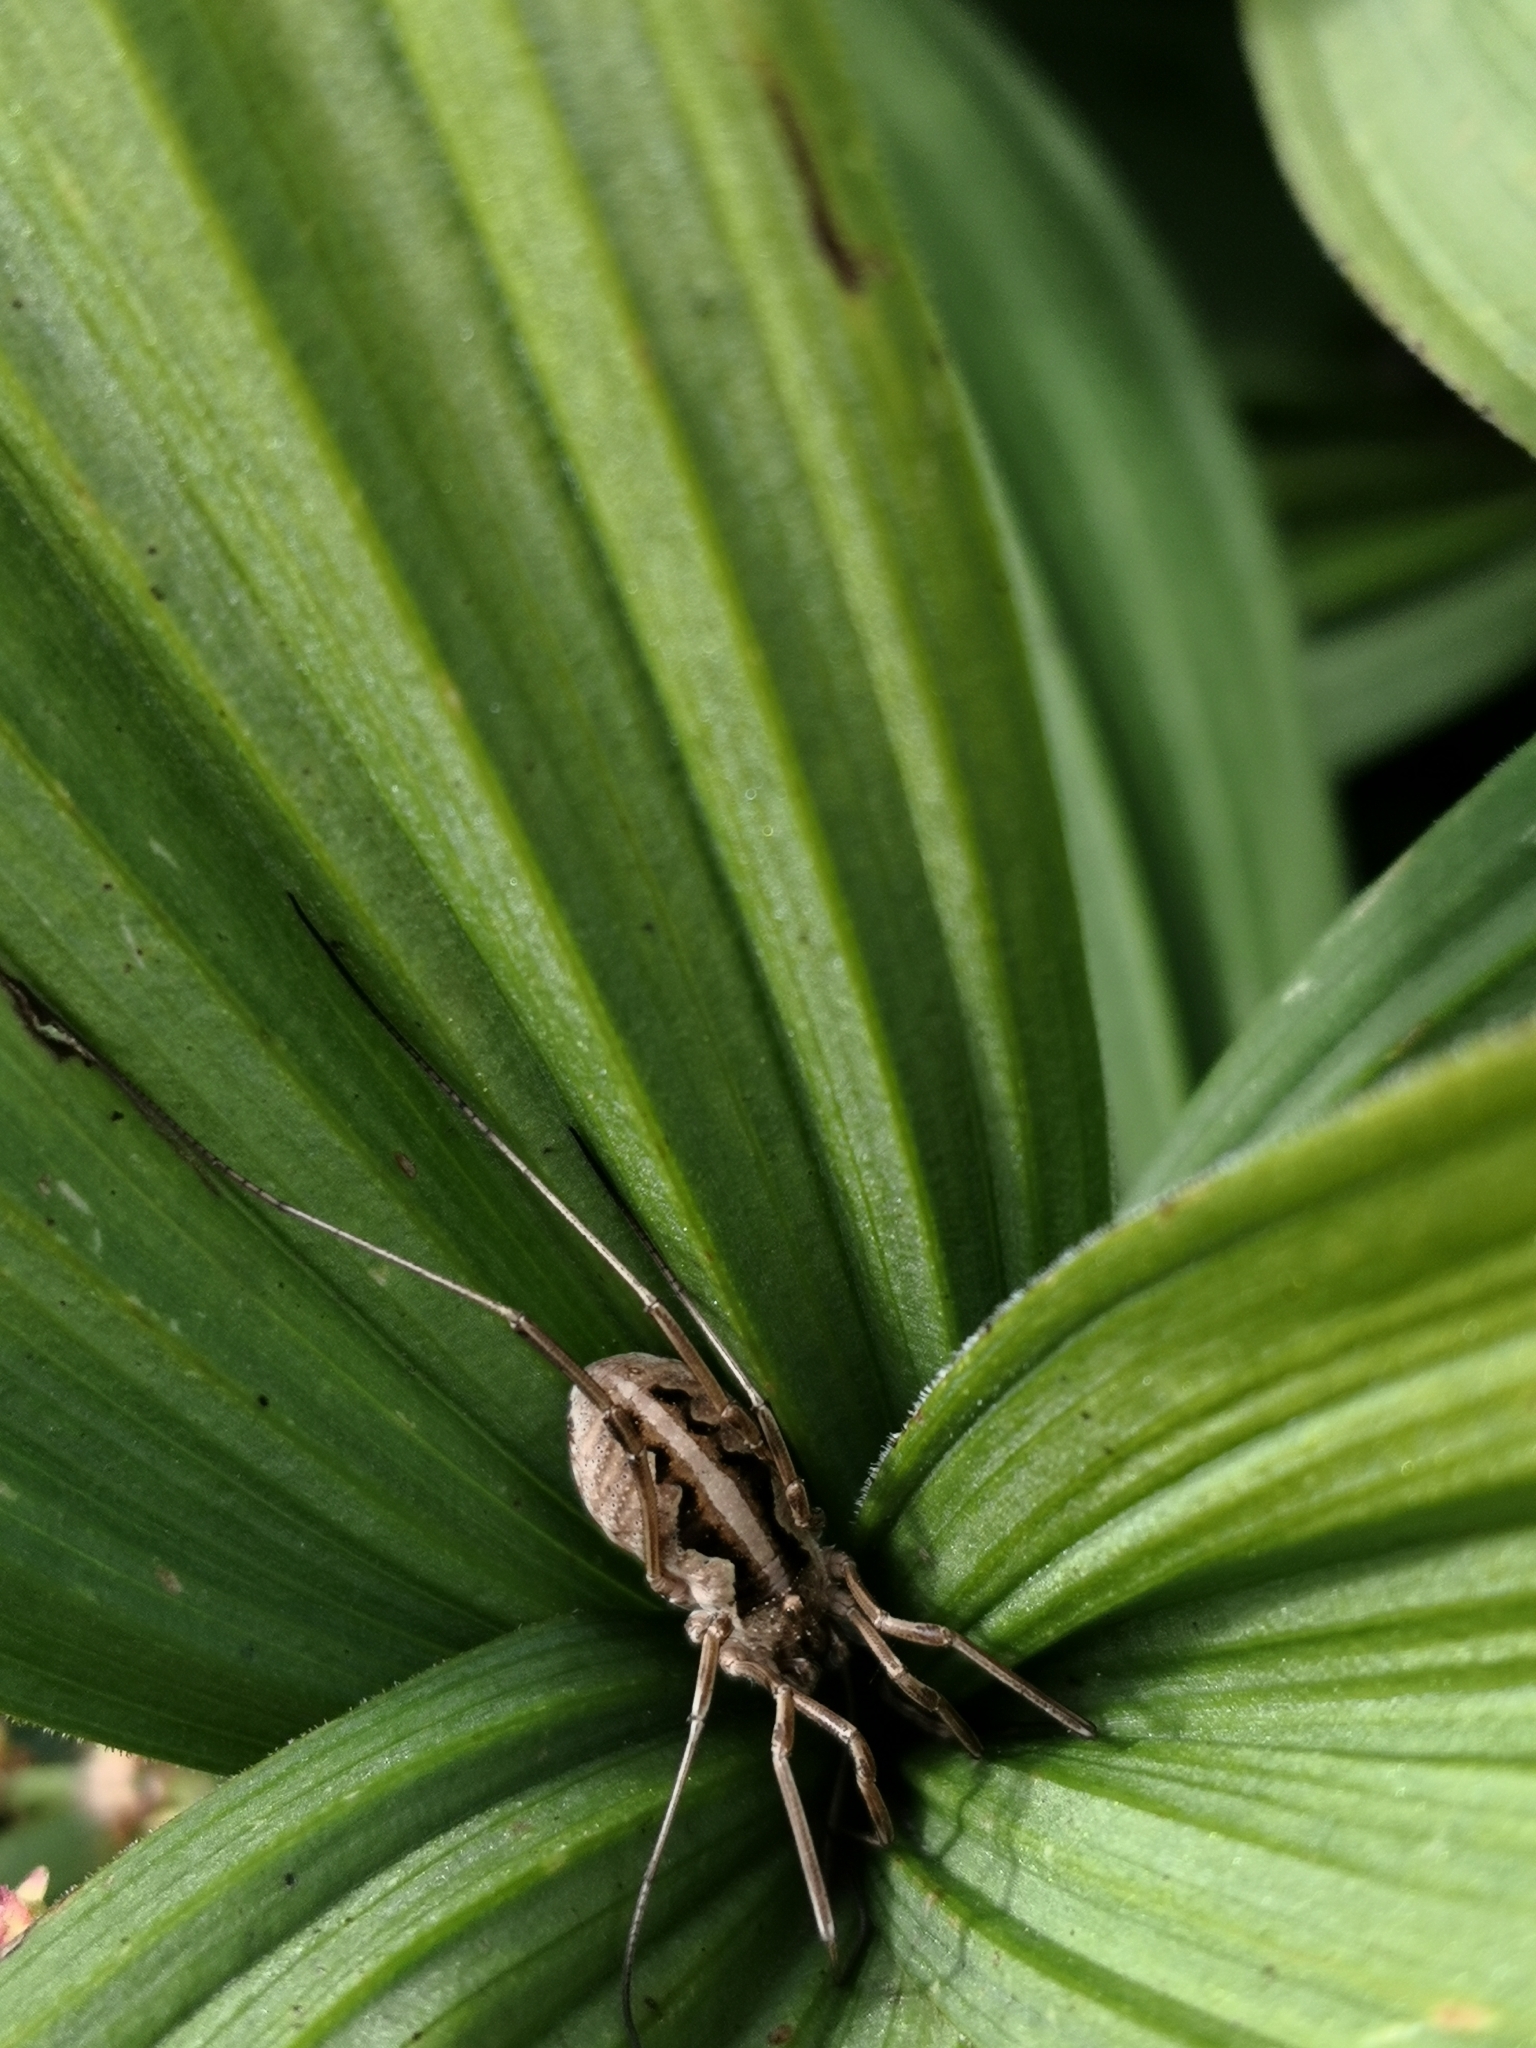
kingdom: Animalia
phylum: Arthropoda
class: Arachnida
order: Opiliones
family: Phalangiidae
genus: Mitopus
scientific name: Mitopus morio
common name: Saddleback harvestman
